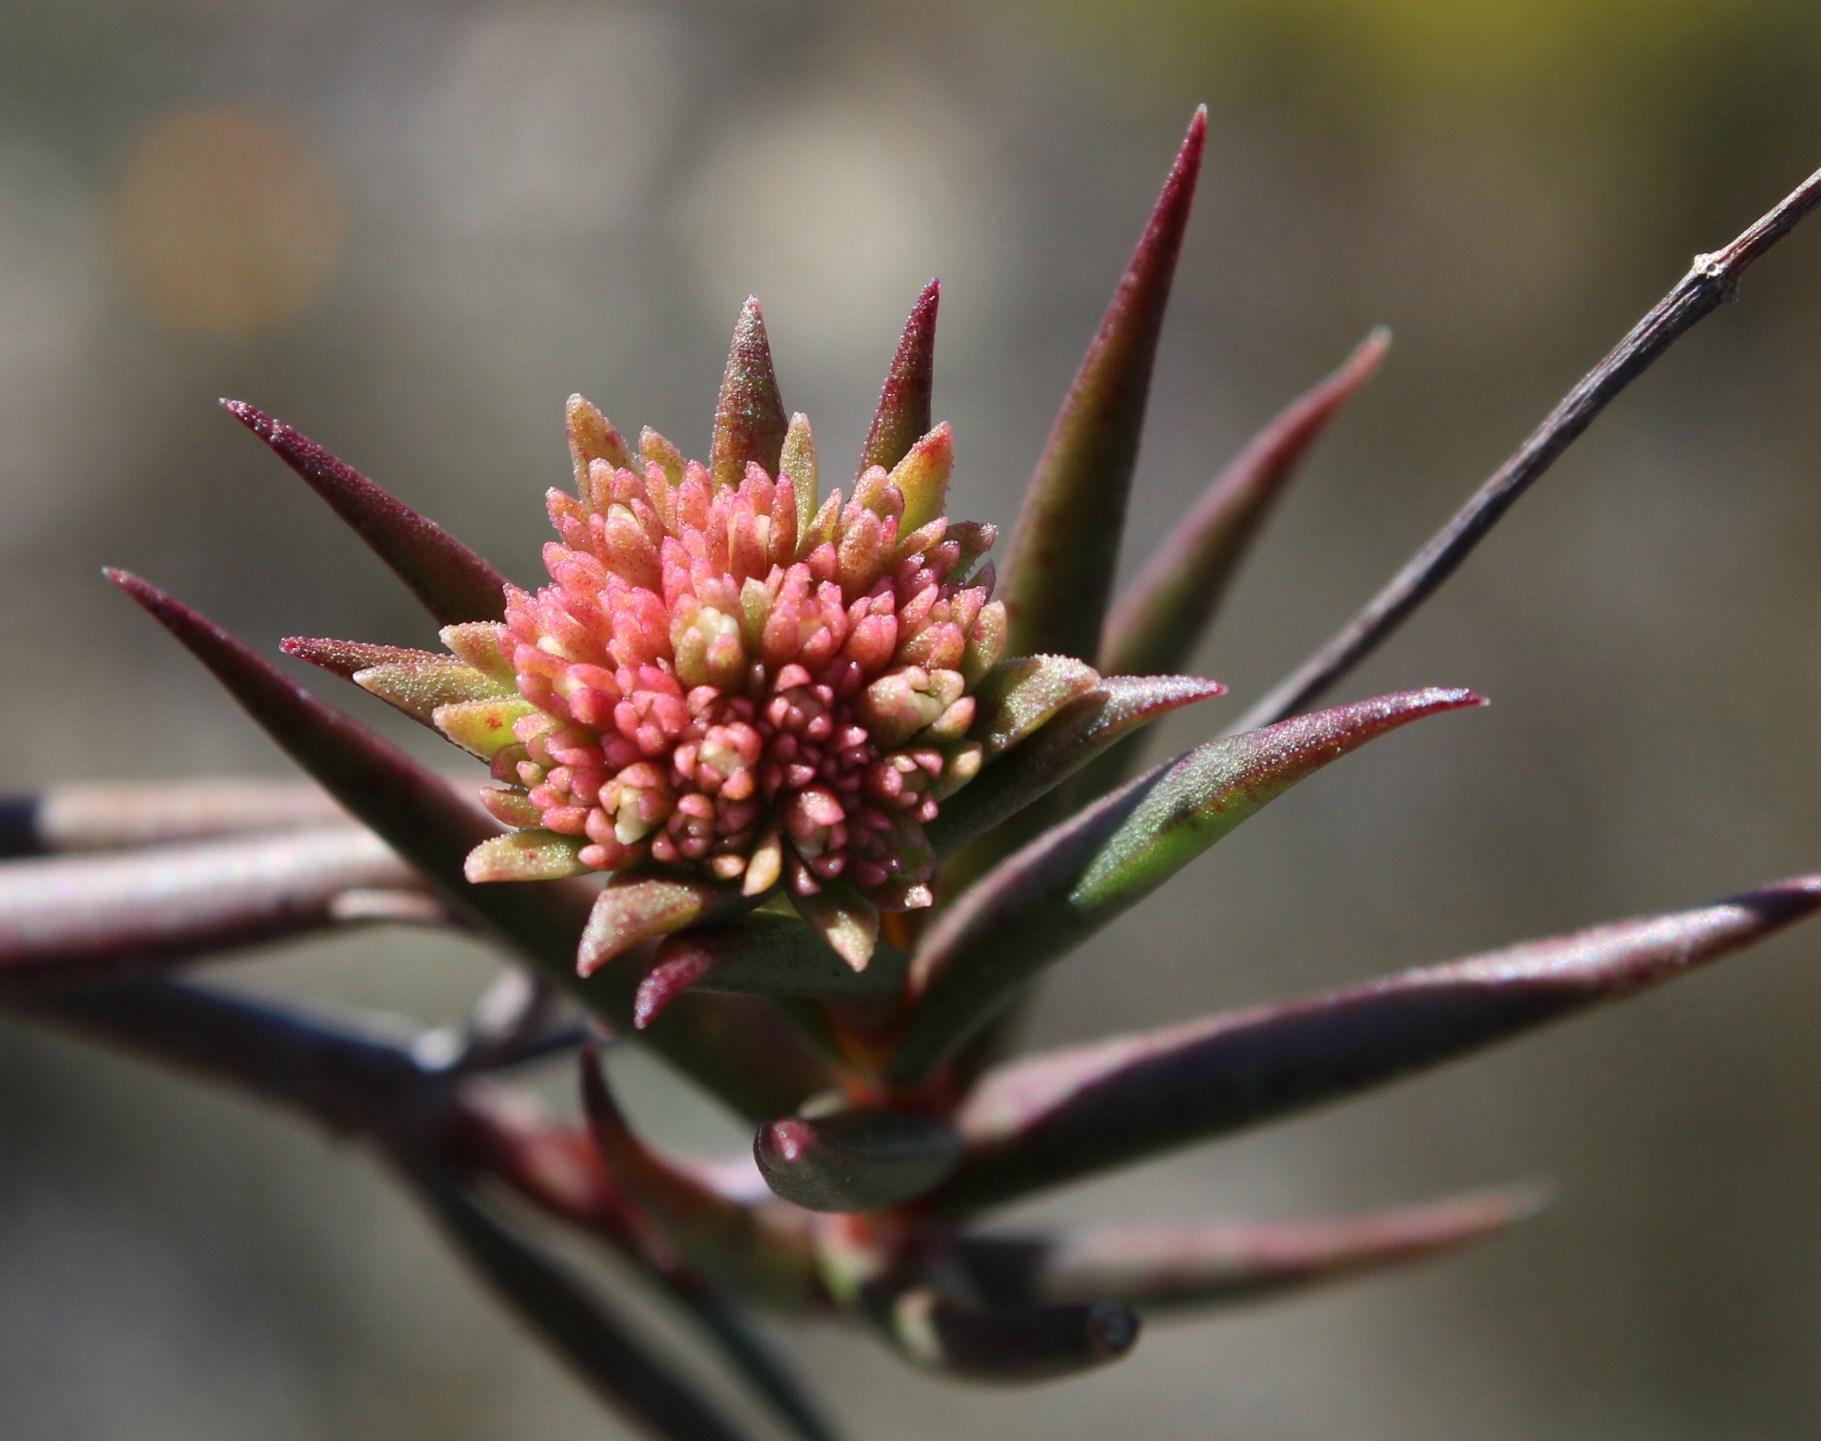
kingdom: Plantae
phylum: Tracheophyta
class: Magnoliopsida
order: Saxifragales
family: Crassulaceae
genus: Crassula
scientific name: Crassula subulata
